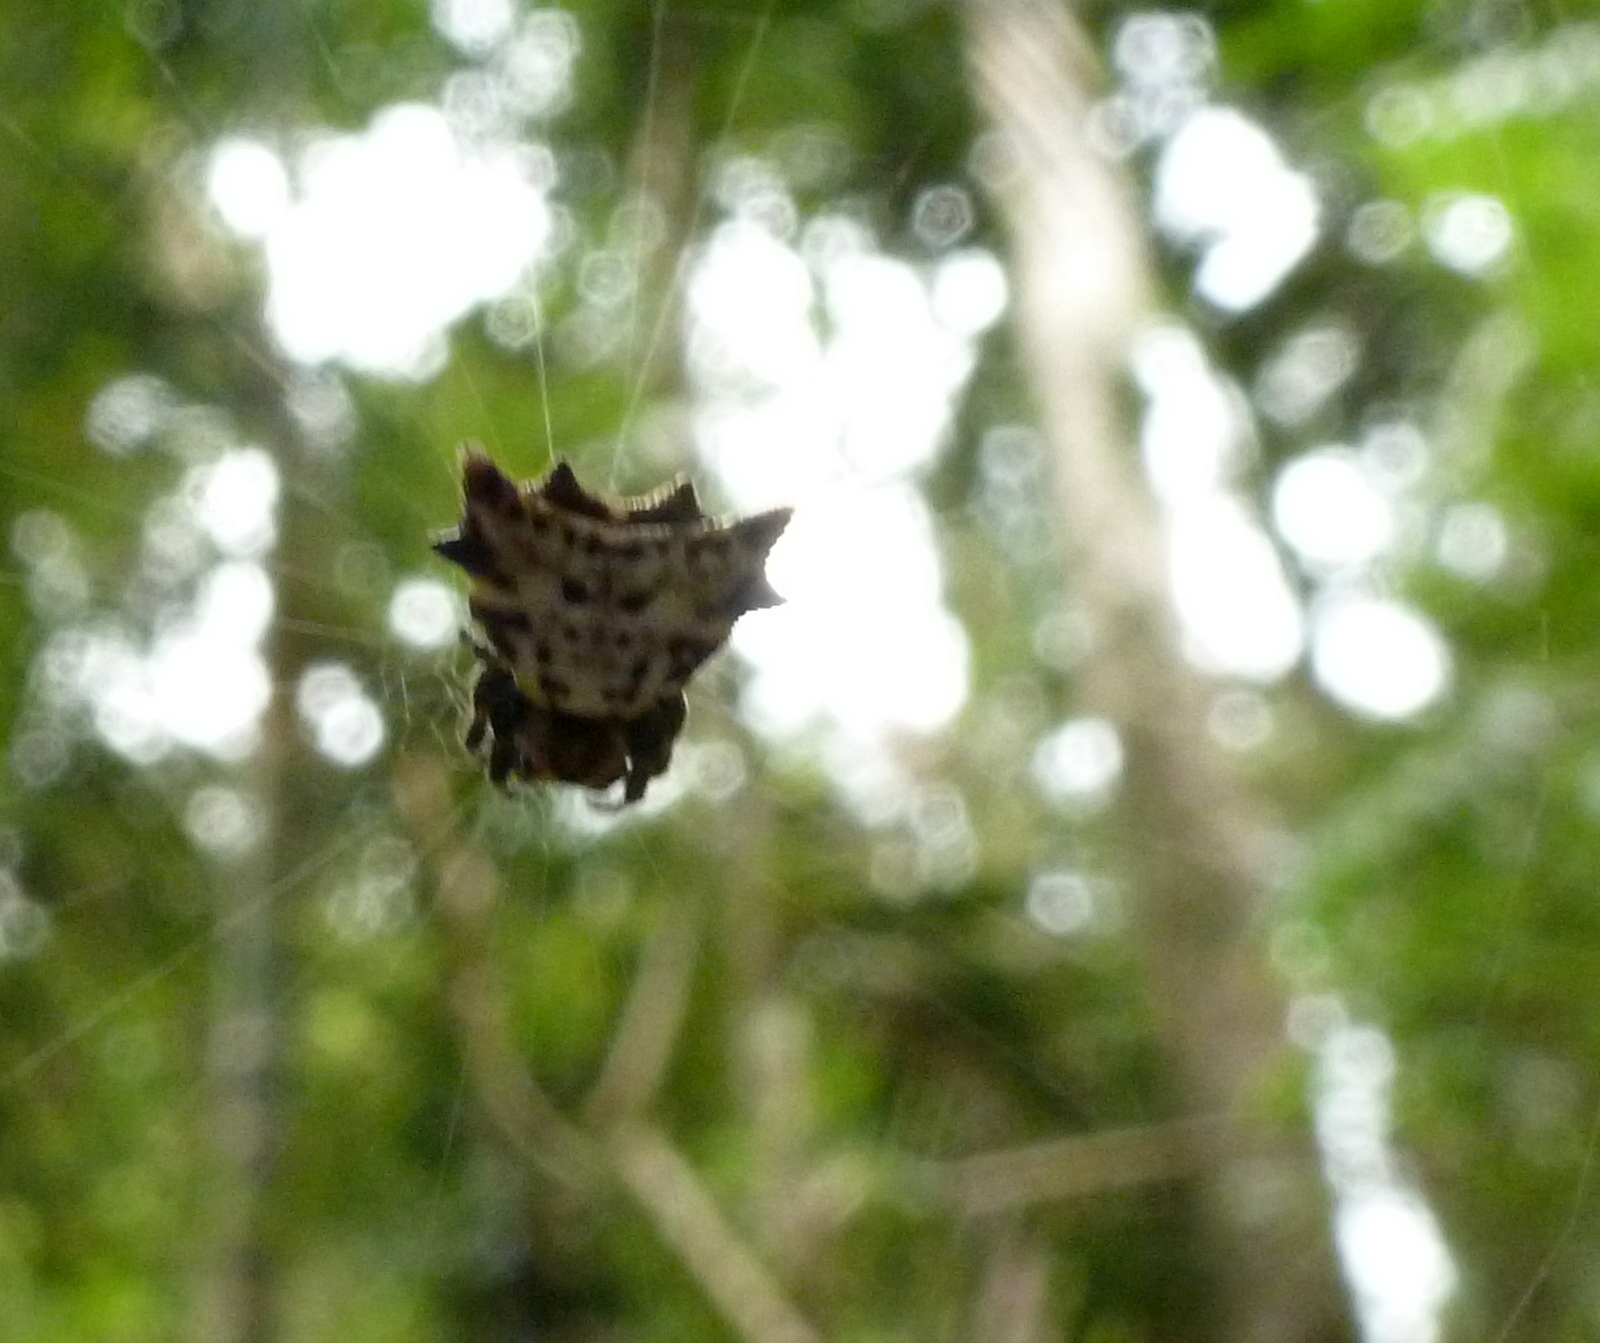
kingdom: Animalia
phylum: Arthropoda
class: Arachnida
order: Araneae
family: Araneidae
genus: Acrosomoides
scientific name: Acrosomoides acrosomoides
